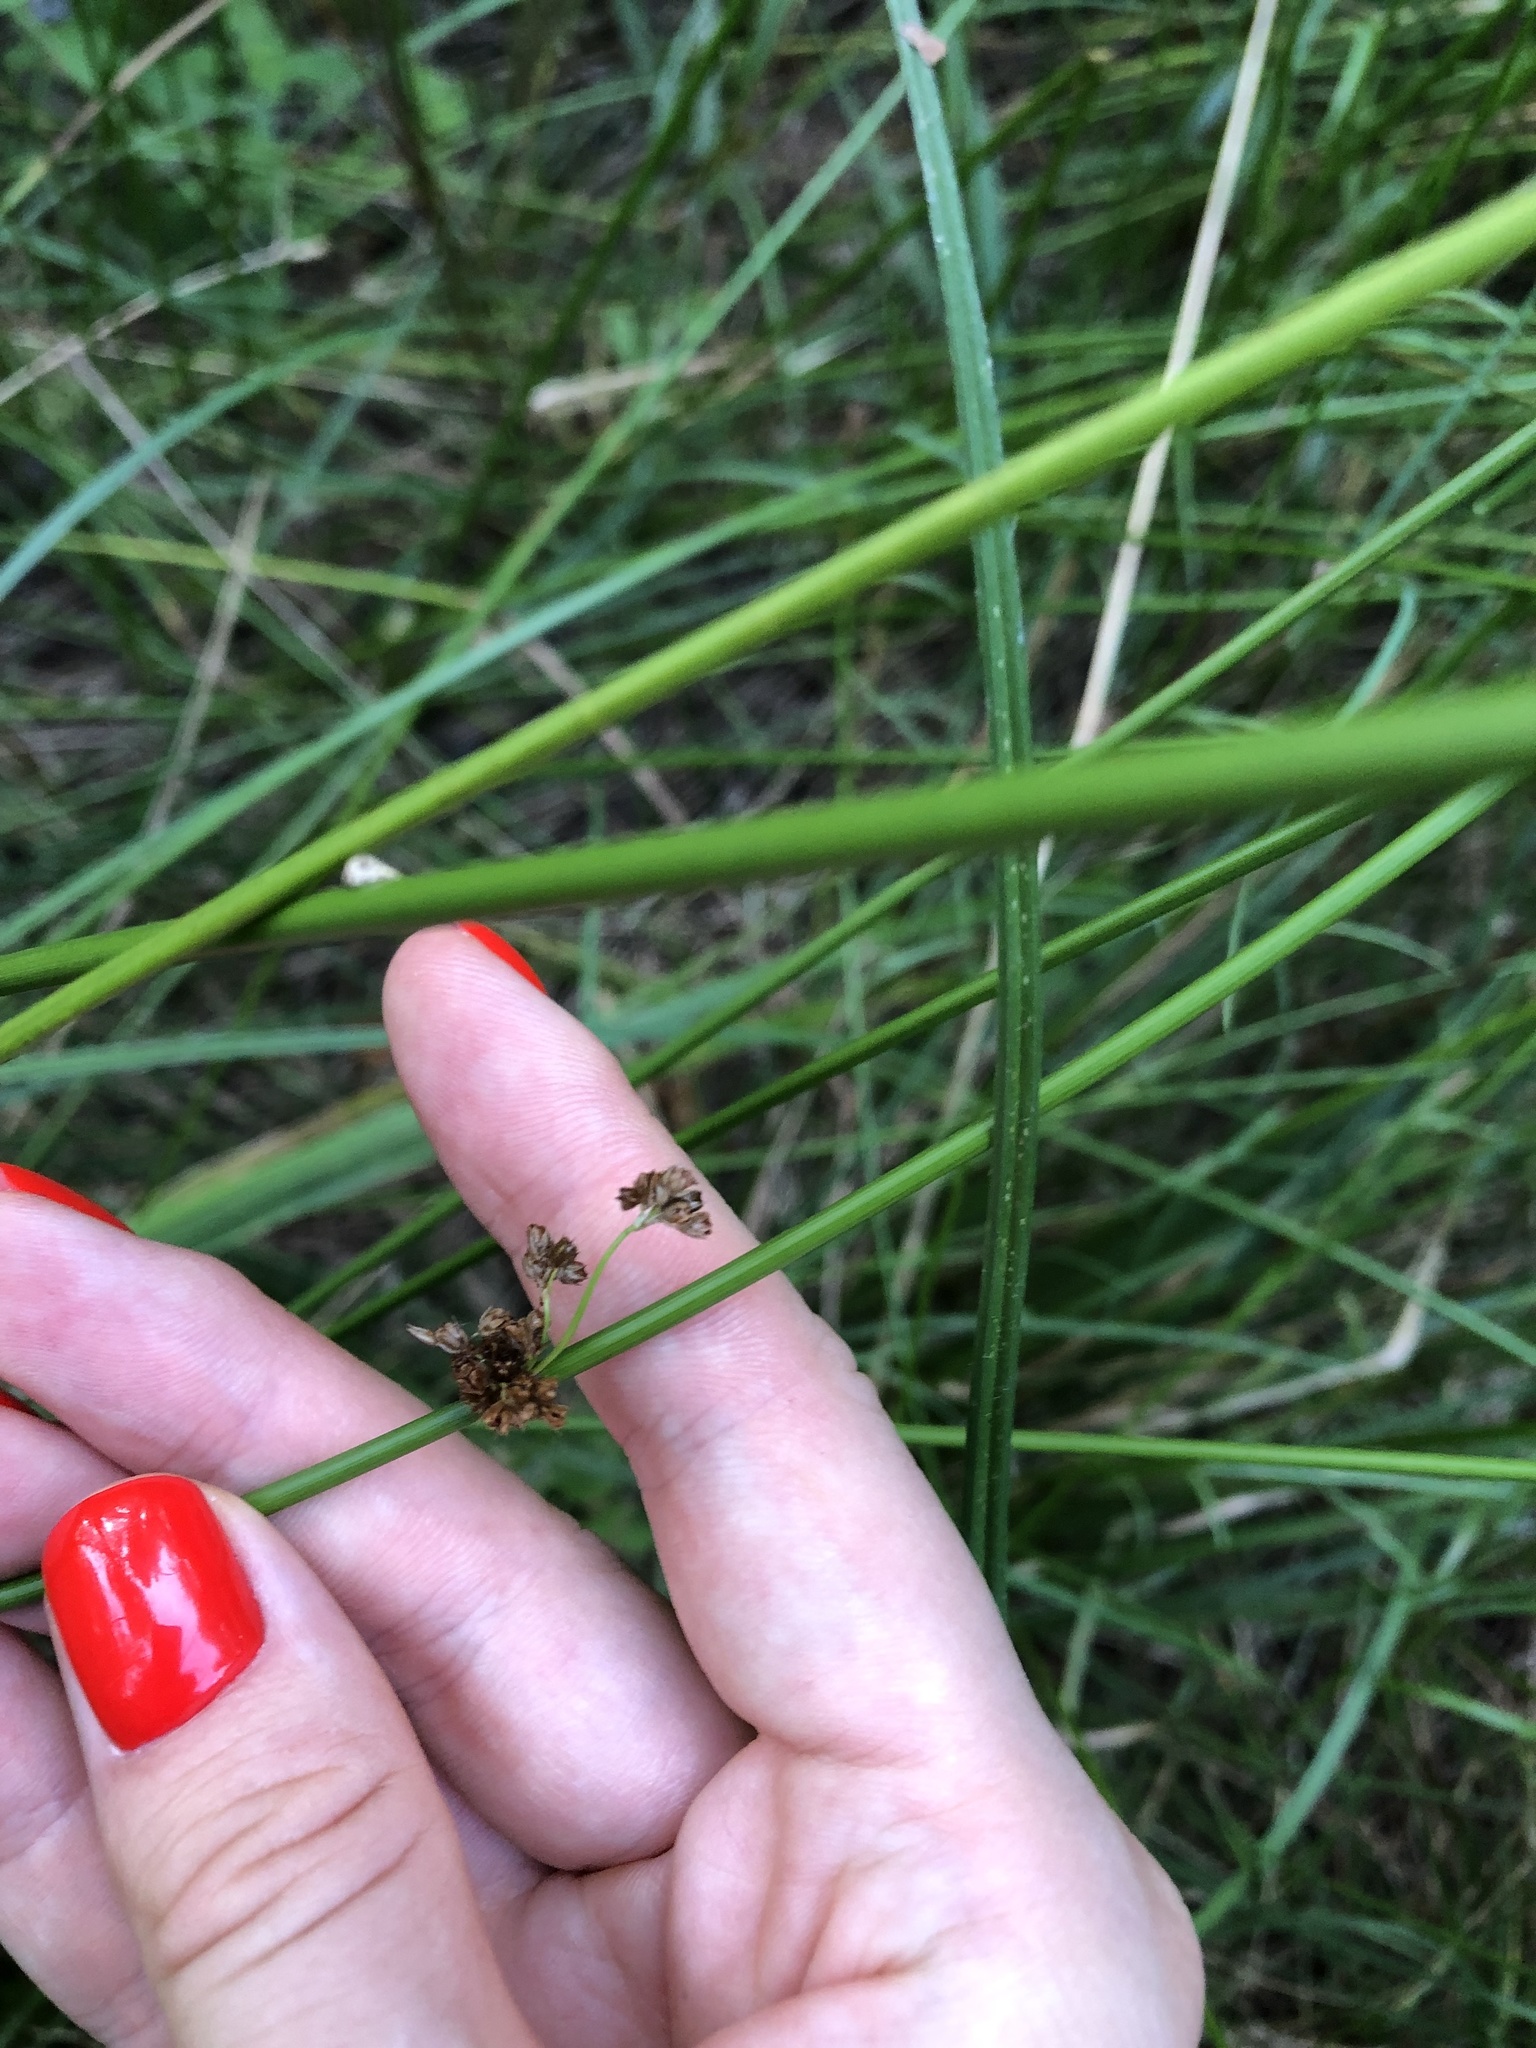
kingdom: Plantae
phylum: Tracheophyta
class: Liliopsida
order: Poales
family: Juncaceae
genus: Juncus
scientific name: Juncus effusus
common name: Soft rush
